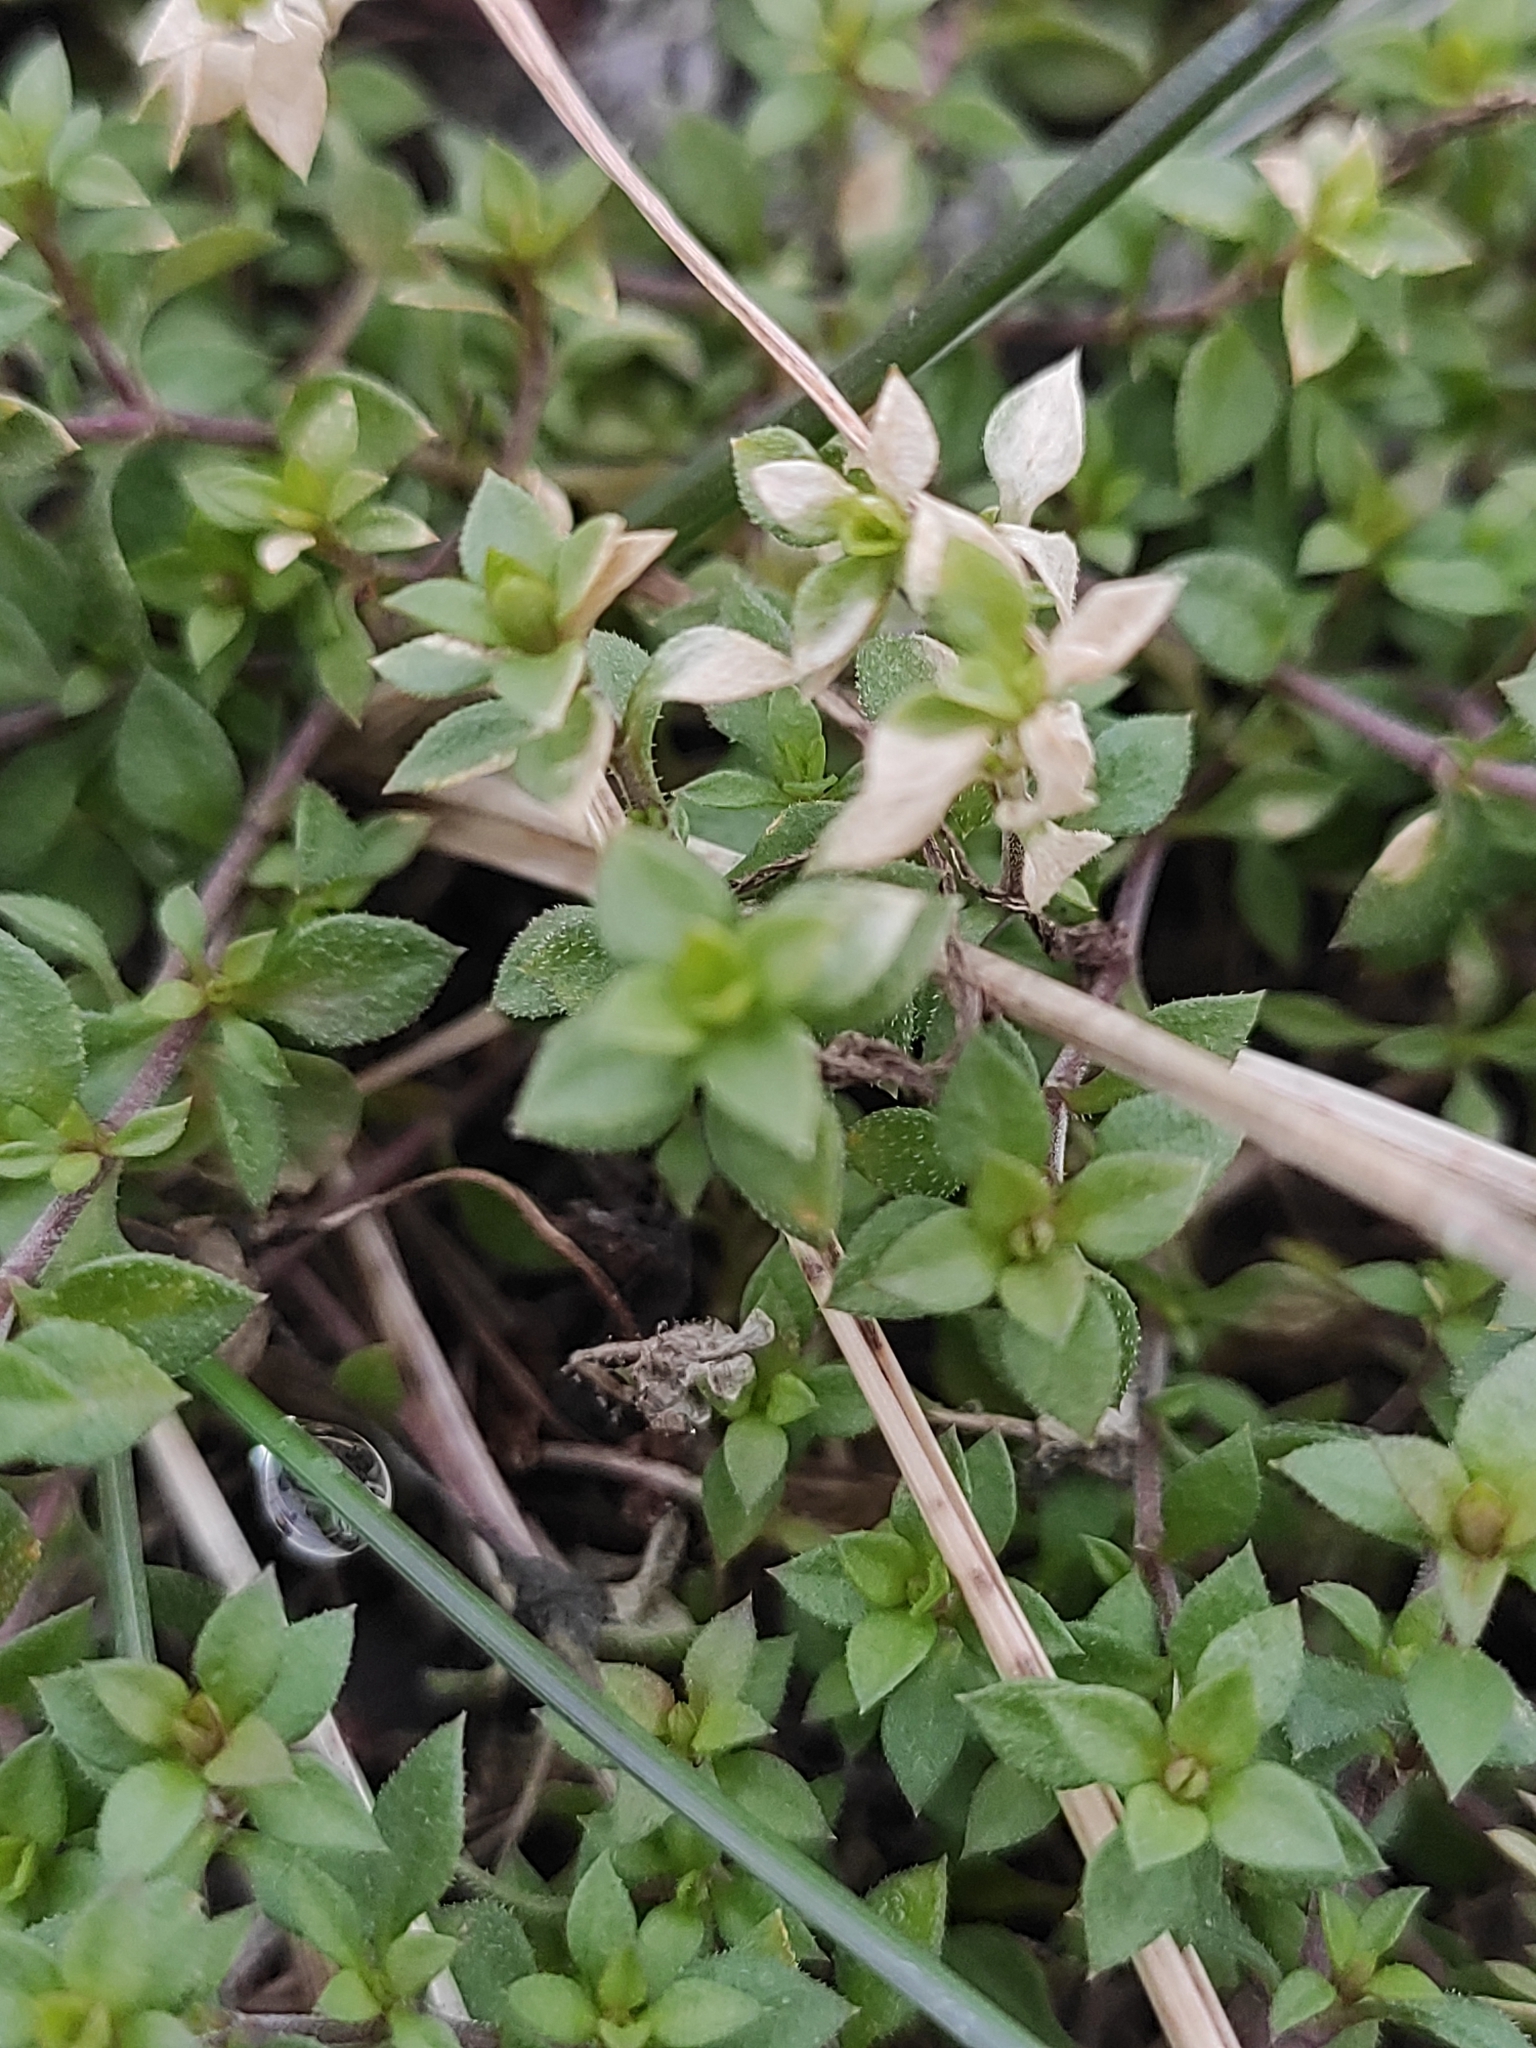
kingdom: Plantae
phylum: Tracheophyta
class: Magnoliopsida
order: Caryophyllales
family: Caryophyllaceae
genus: Arenaria
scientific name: Arenaria serpyllifolia
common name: Thyme-leaved sandwort
